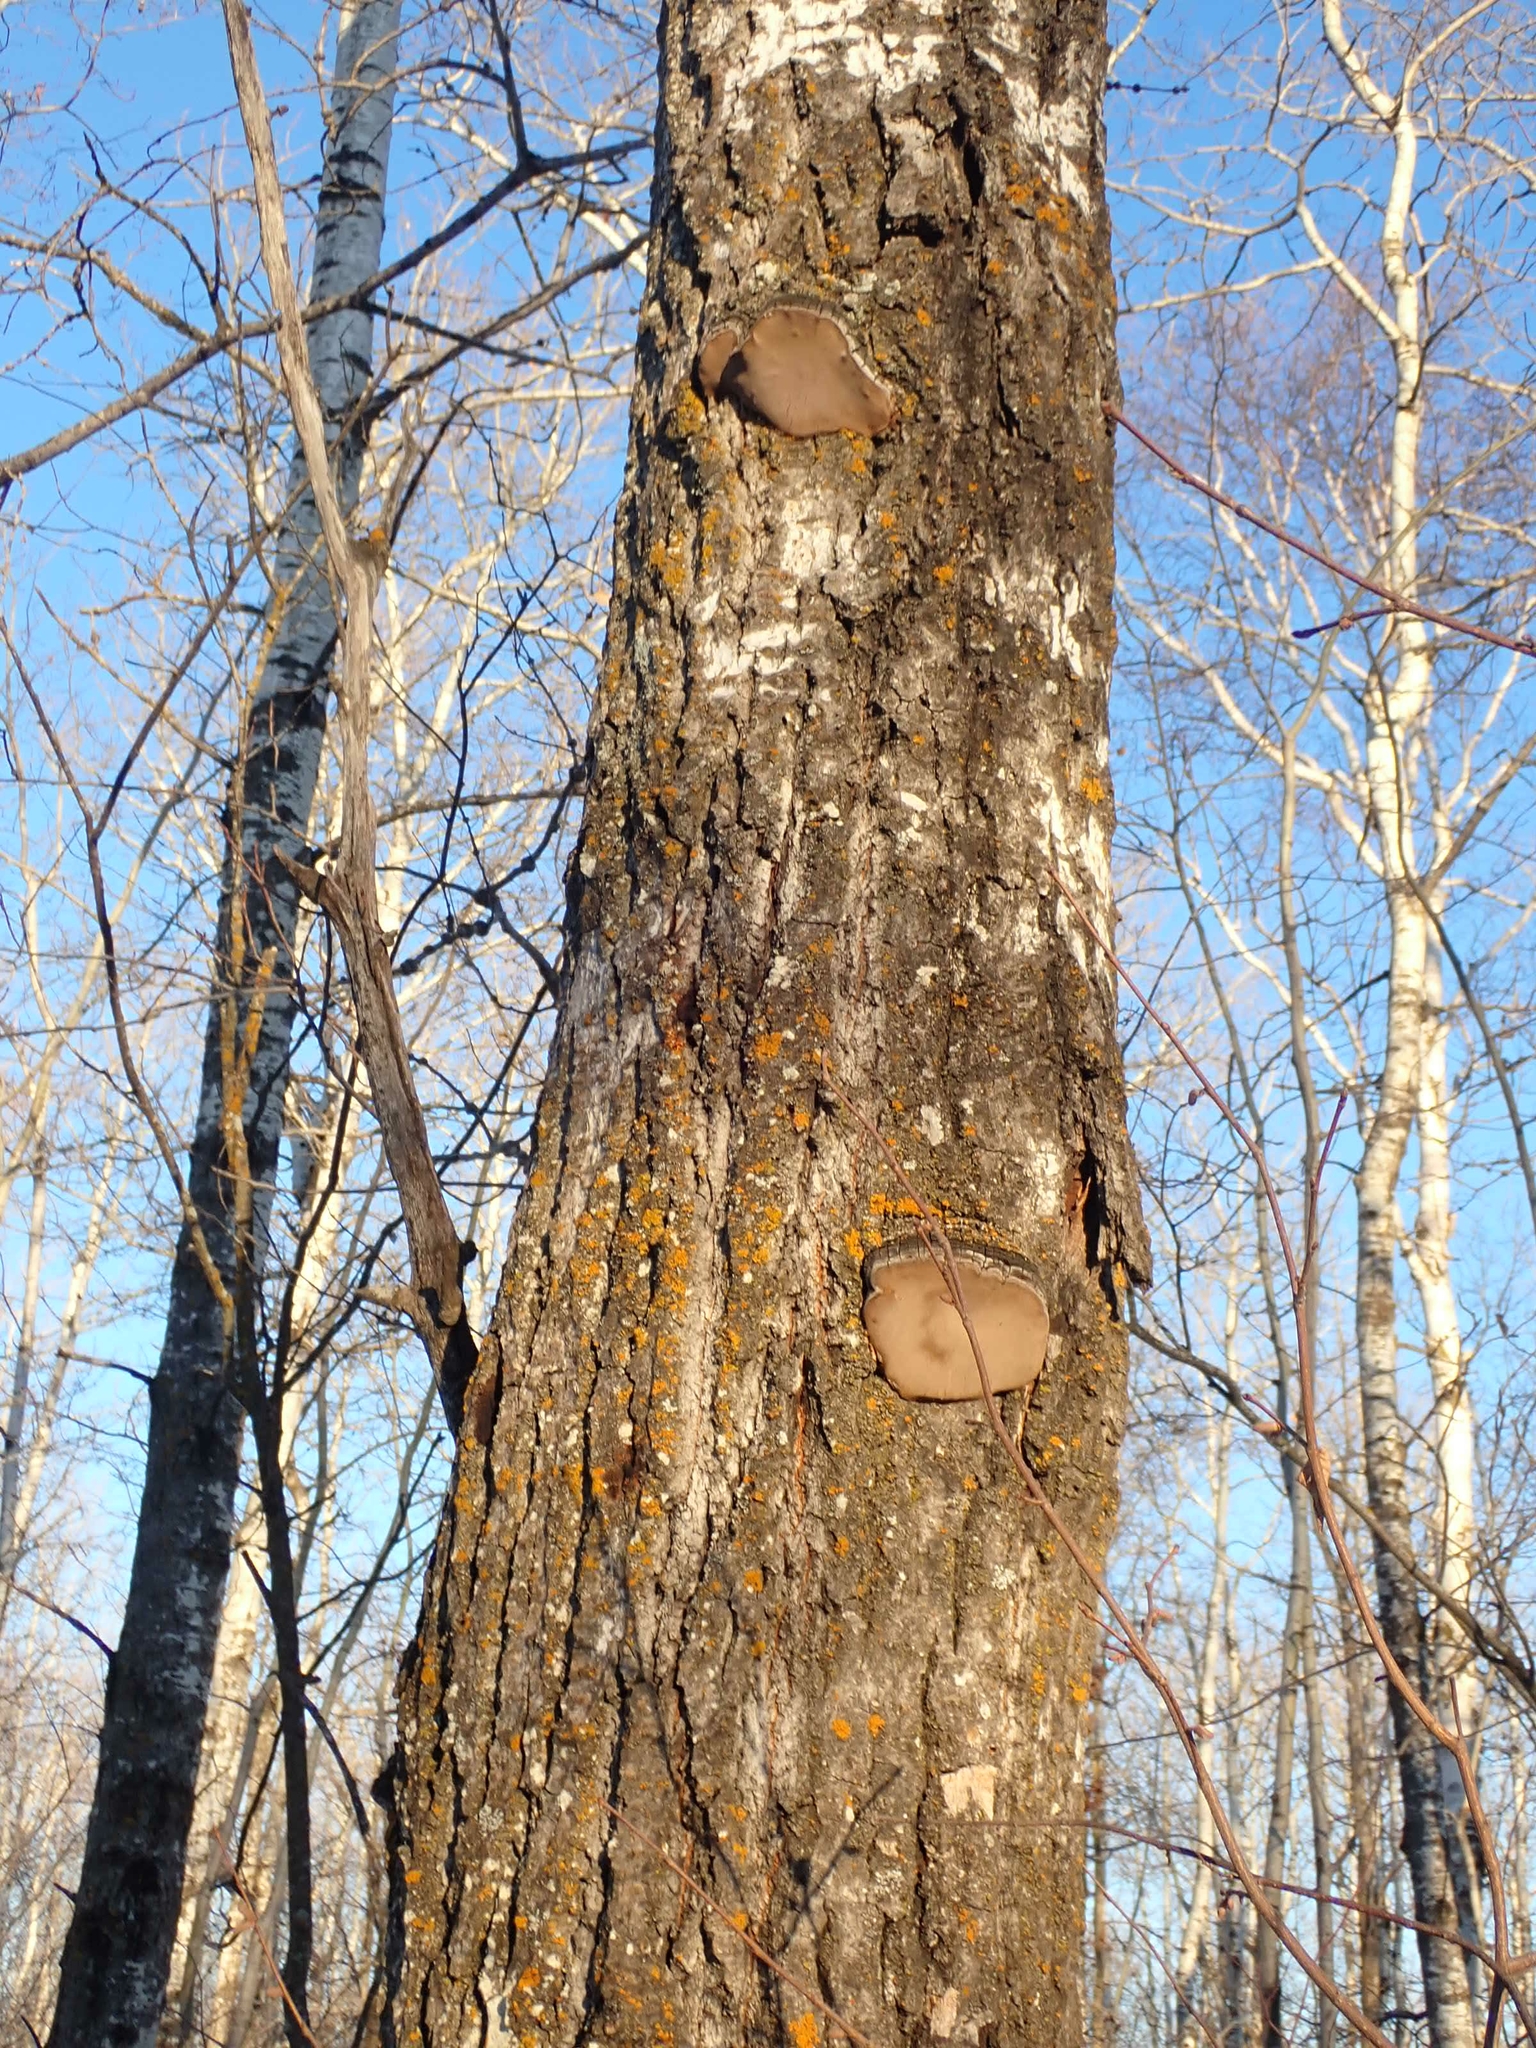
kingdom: Fungi
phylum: Basidiomycota
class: Agaricomycetes
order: Hymenochaetales
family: Hymenochaetaceae
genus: Phellinus
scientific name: Phellinus tremulae
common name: Aspen bracket
